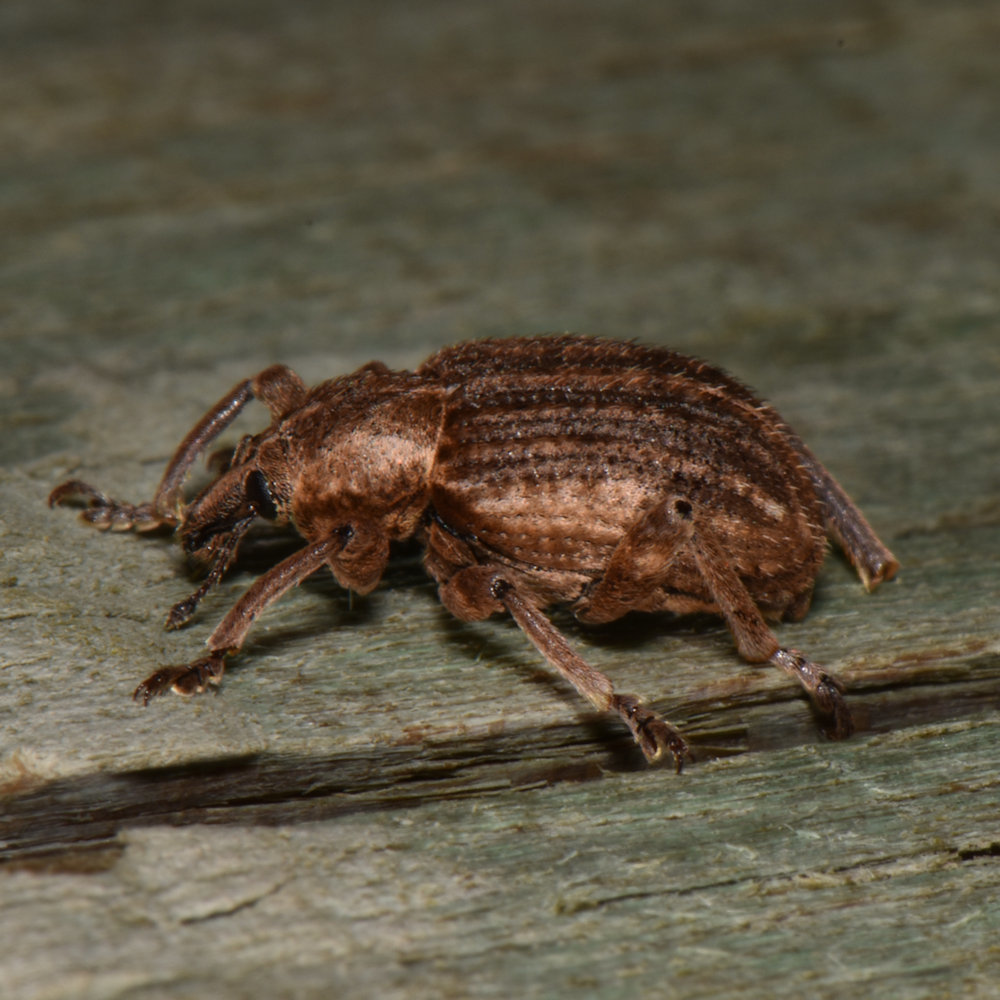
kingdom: Animalia
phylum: Arthropoda
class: Insecta
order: Coleoptera
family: Curculionidae
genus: Brachypera
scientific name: Brachypera zoilus
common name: Clover leaf weevil
